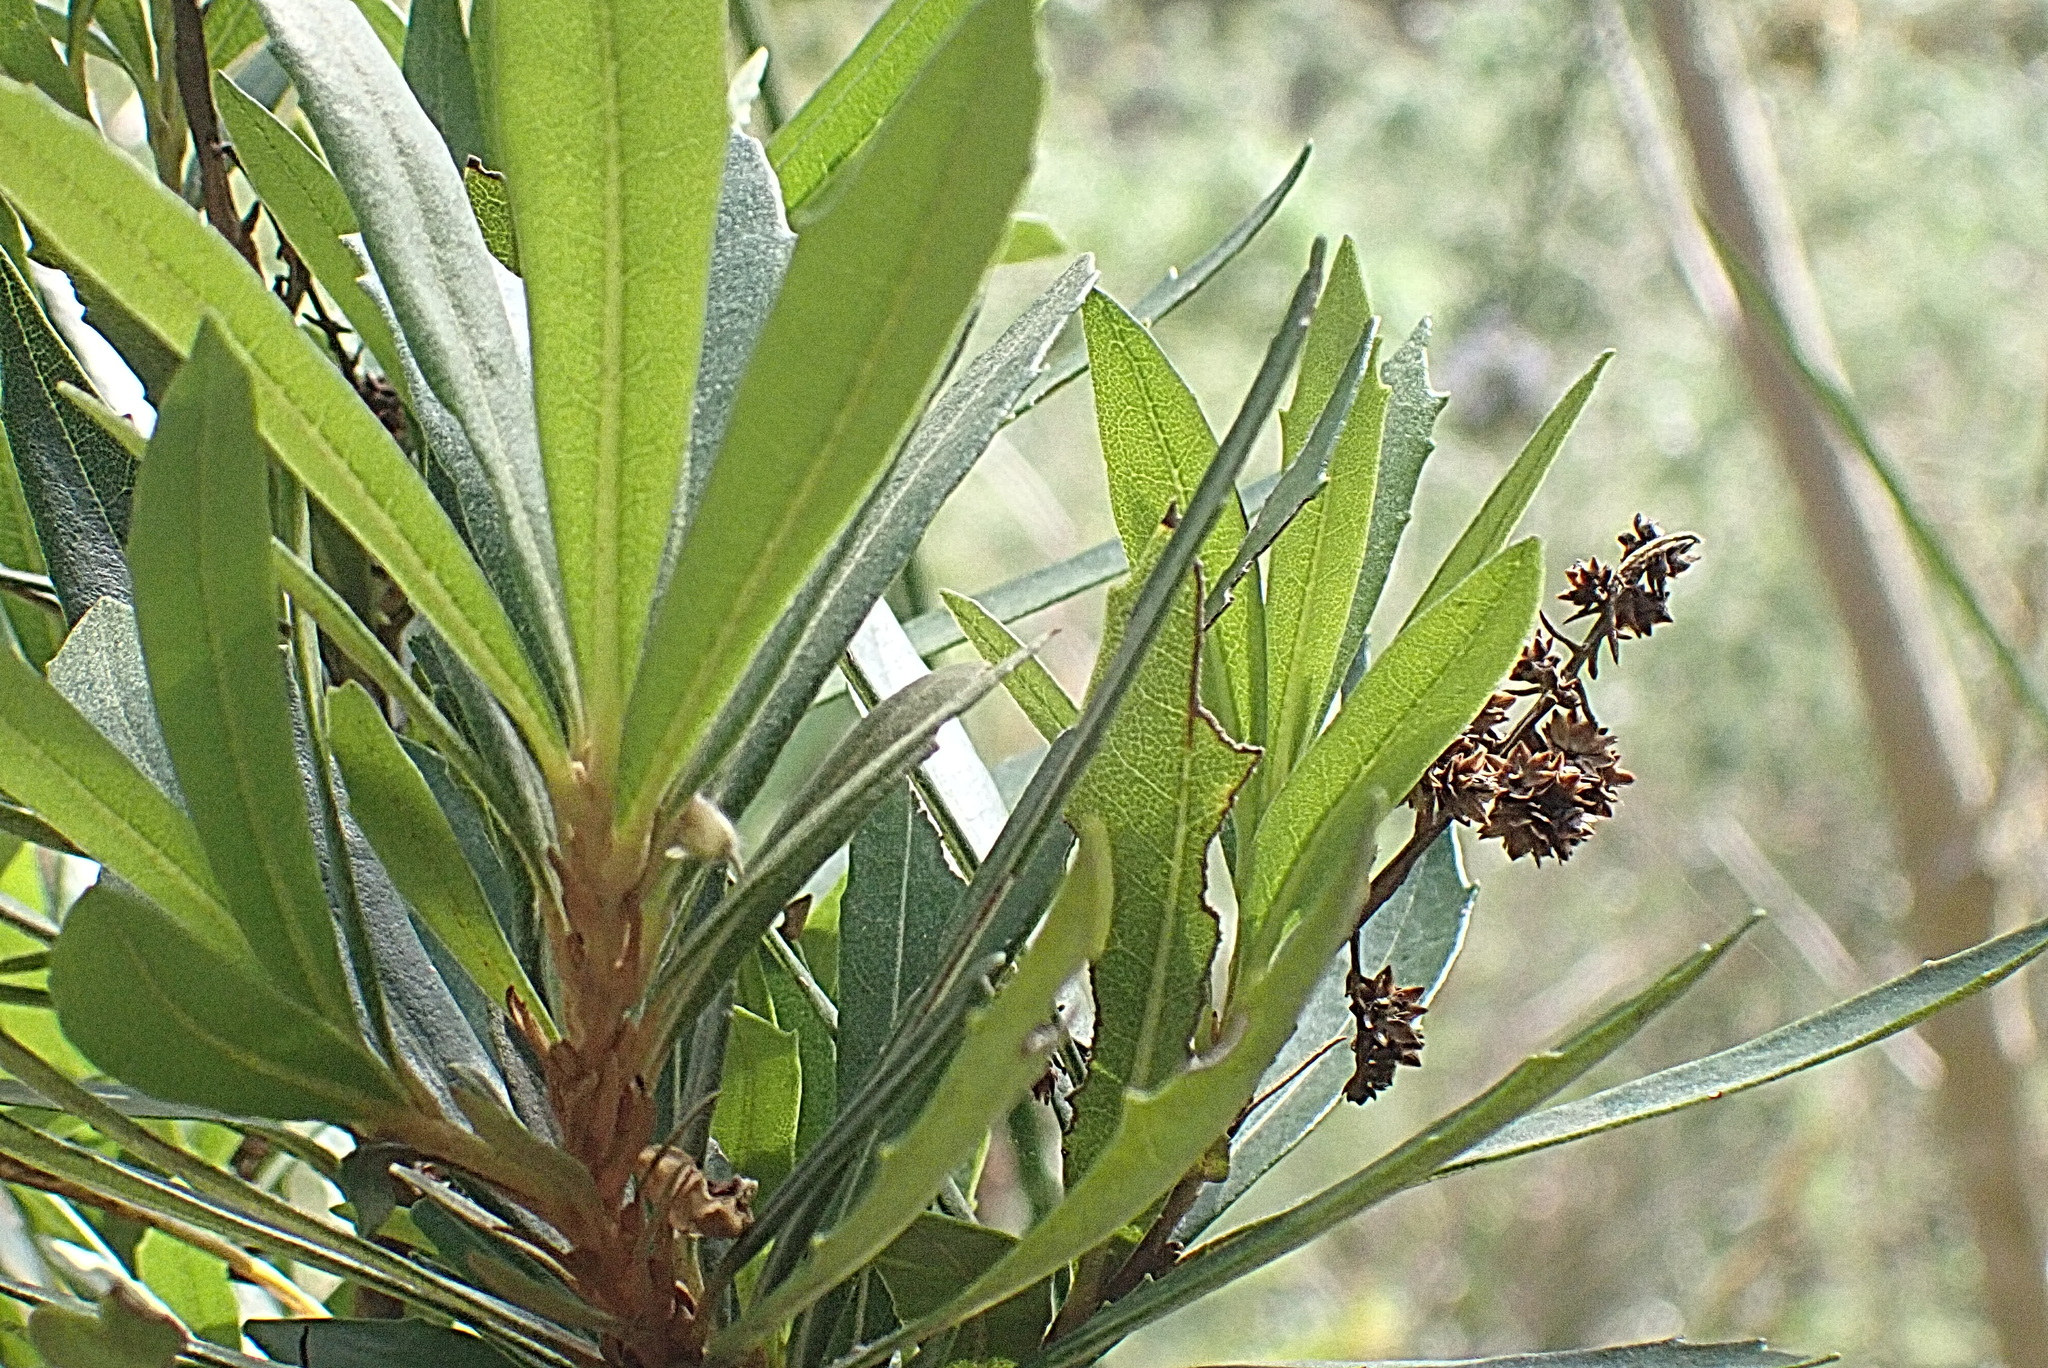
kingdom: Plantae
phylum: Tracheophyta
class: Magnoliopsida
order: Asterales
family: Asteraceae
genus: Brachylaena
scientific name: Brachylaena neriifolia
